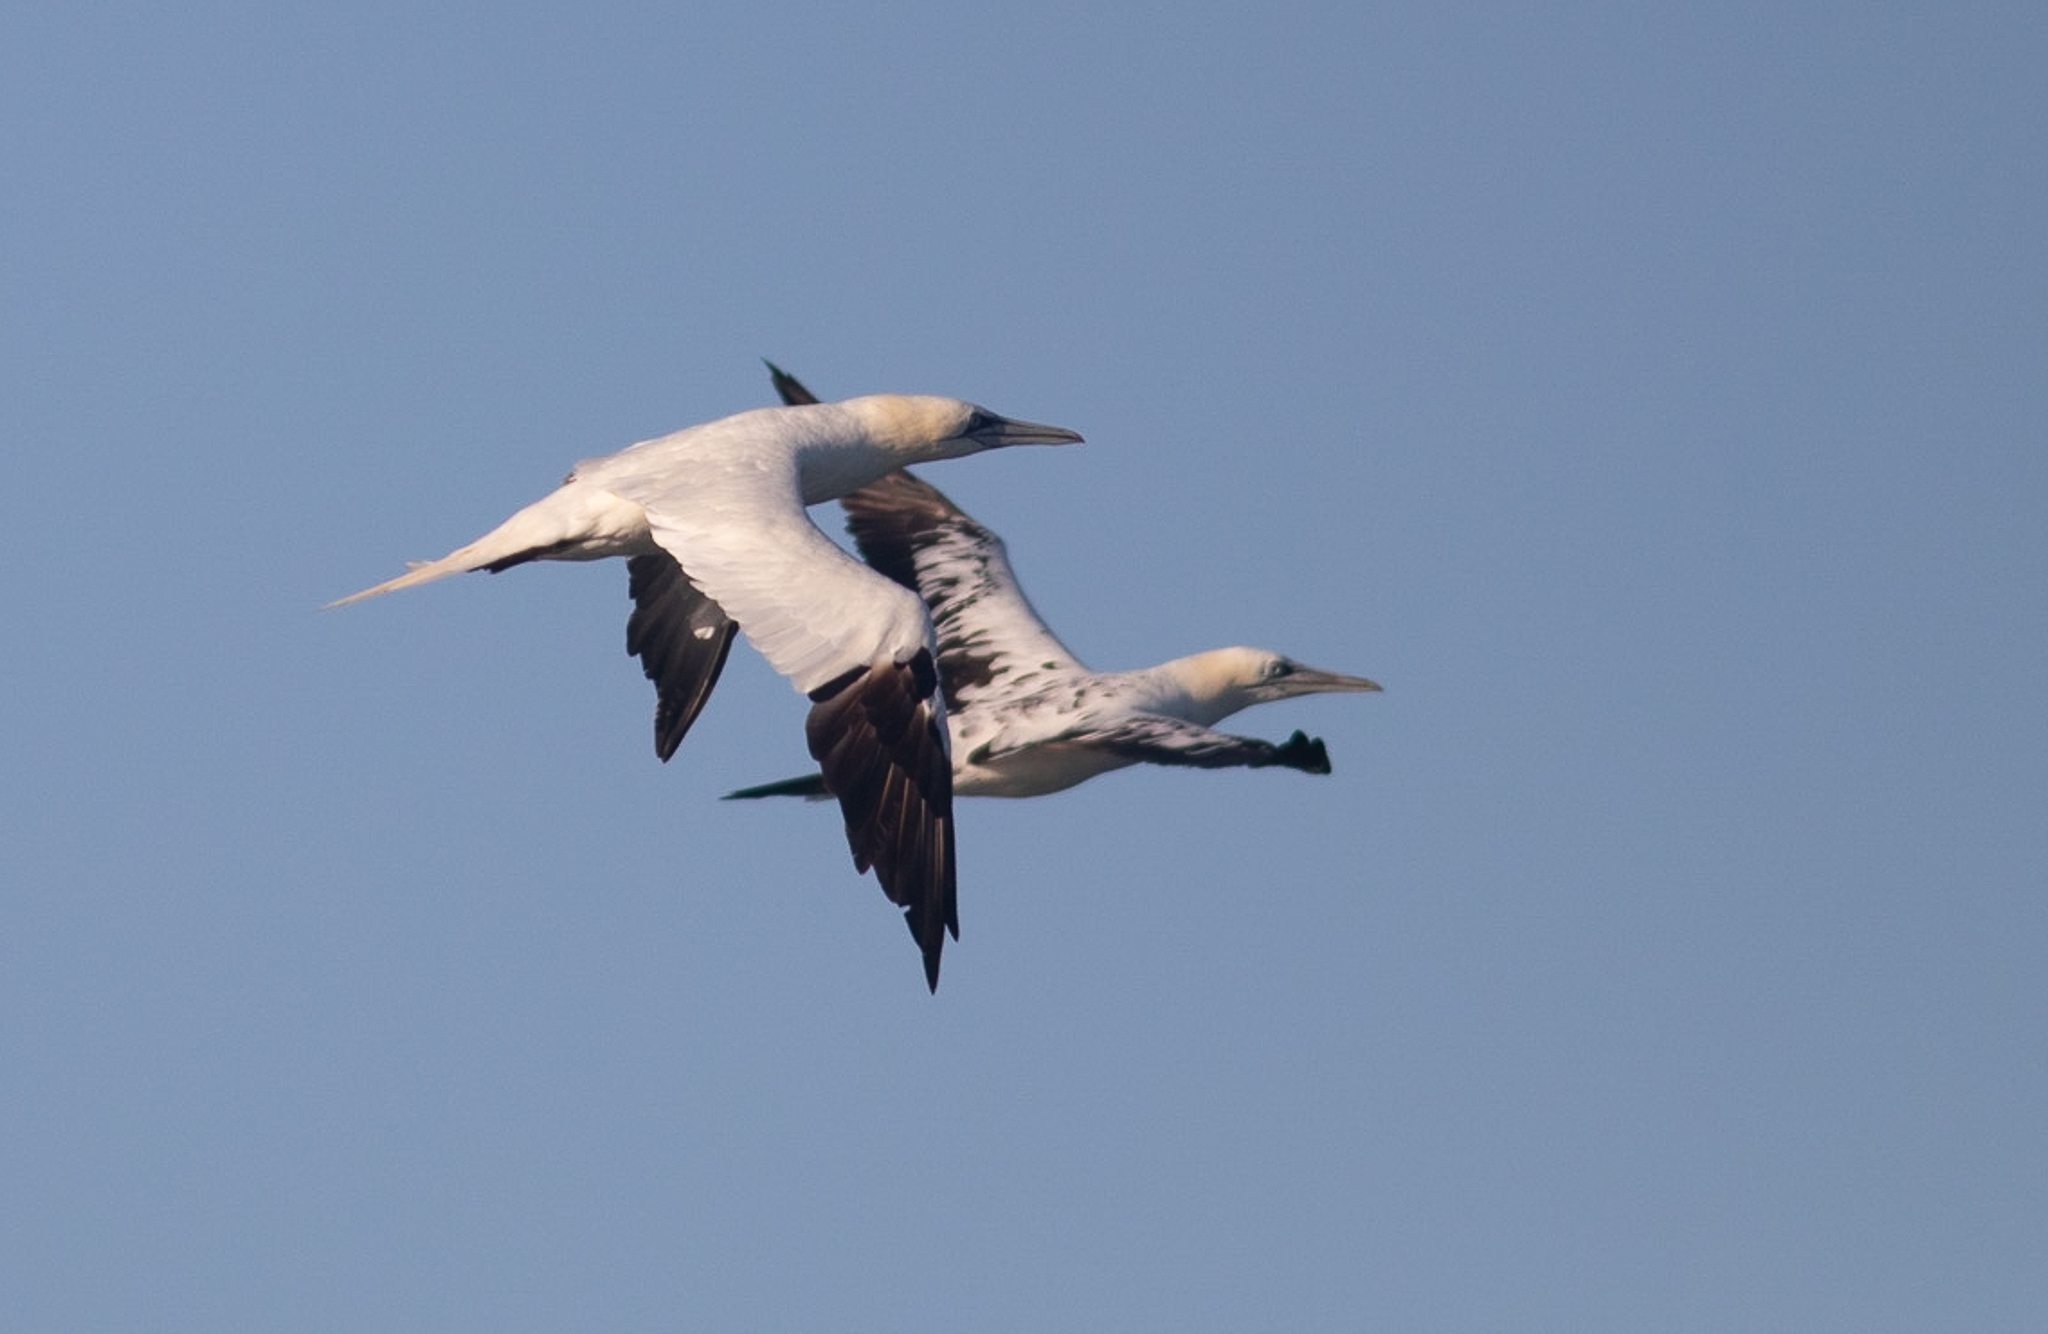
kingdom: Animalia
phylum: Chordata
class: Aves
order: Suliformes
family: Sulidae
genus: Morus
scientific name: Morus bassanus
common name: Northern gannet
